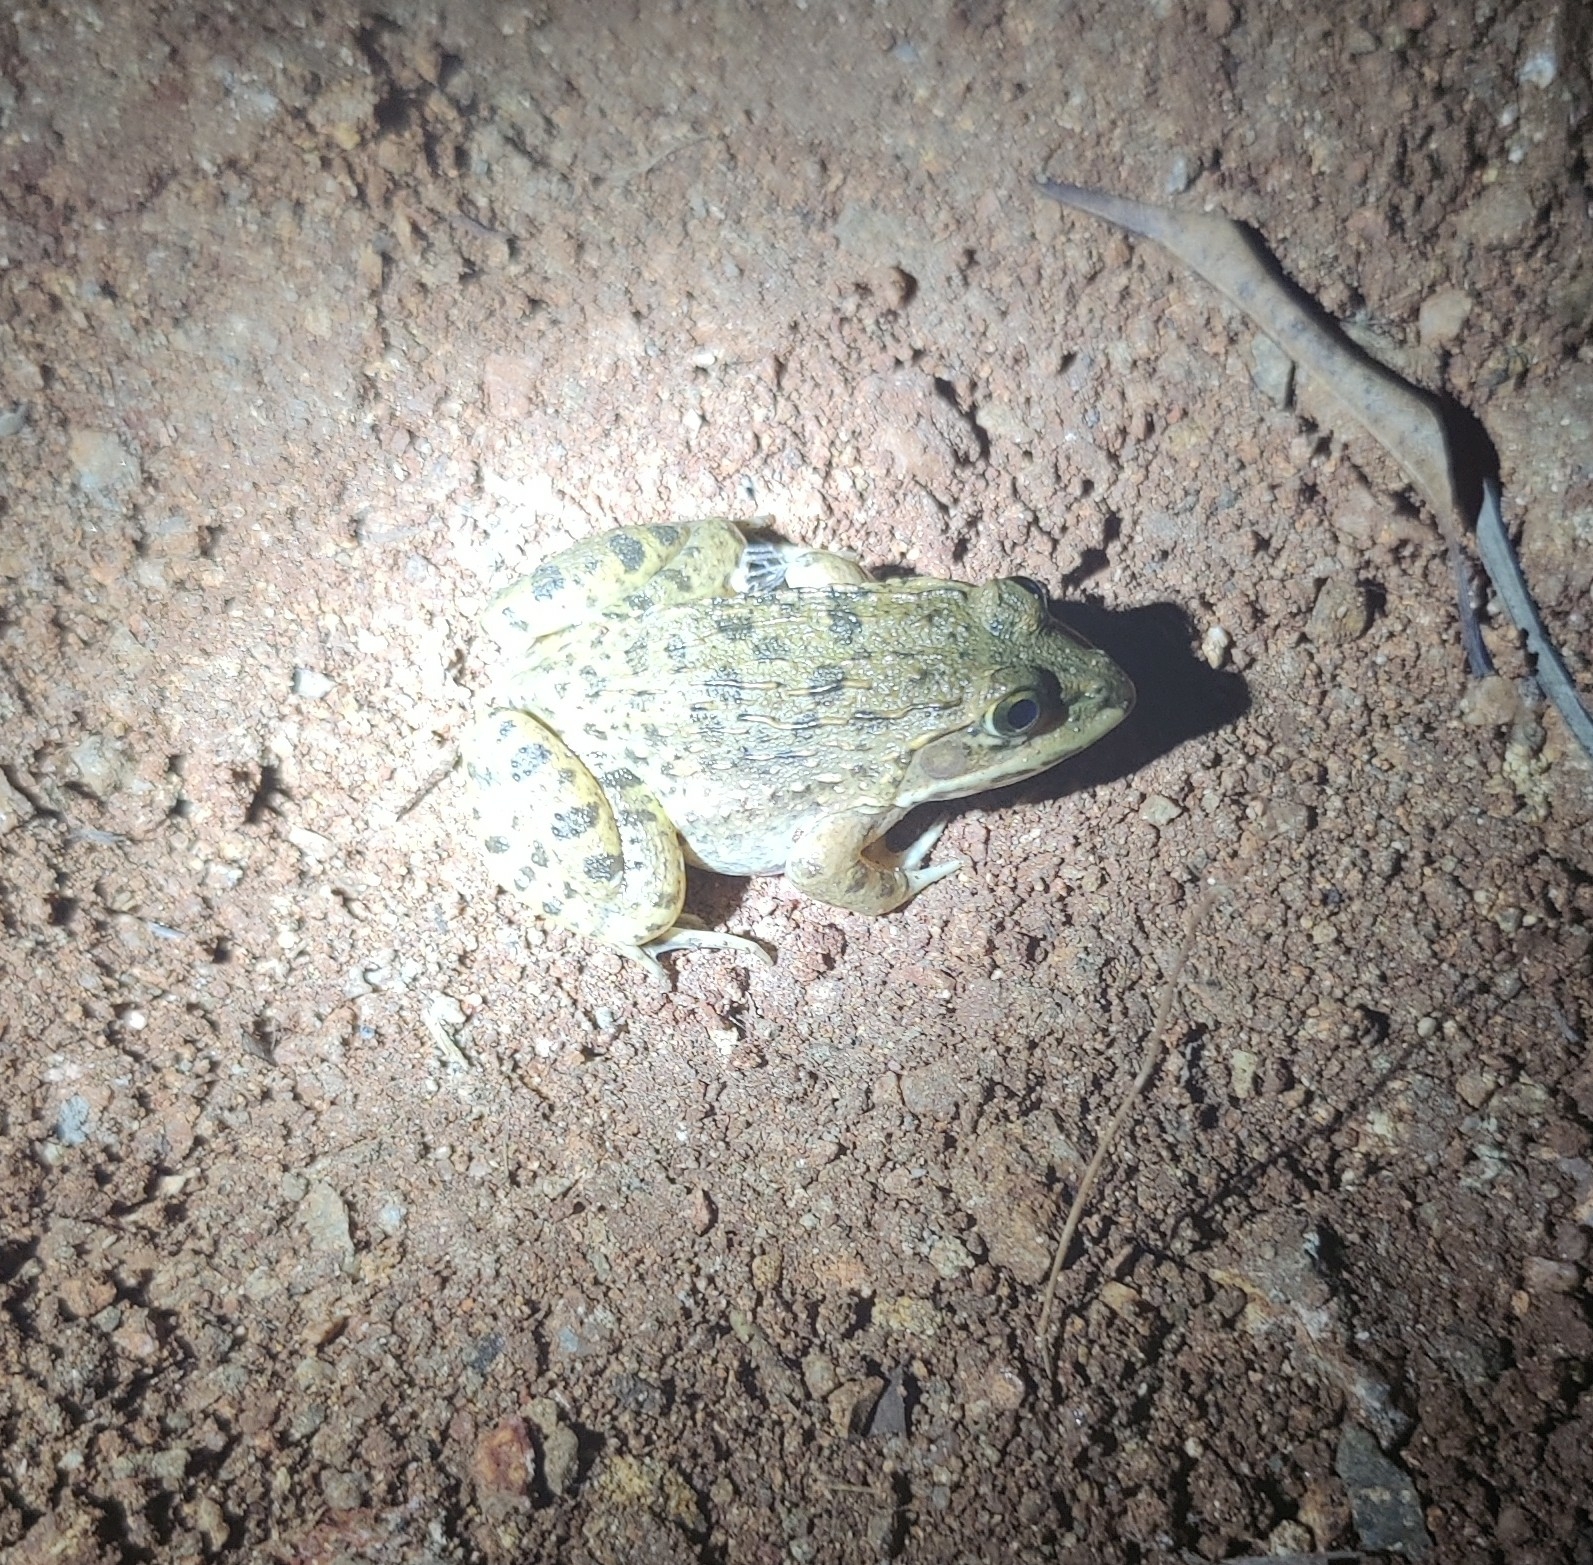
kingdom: Animalia
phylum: Chordata
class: Amphibia
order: Anura
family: Dicroglossidae
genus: Hoplobatrachus
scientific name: Hoplobatrachus crassus
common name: Jerdon's bullfrog
